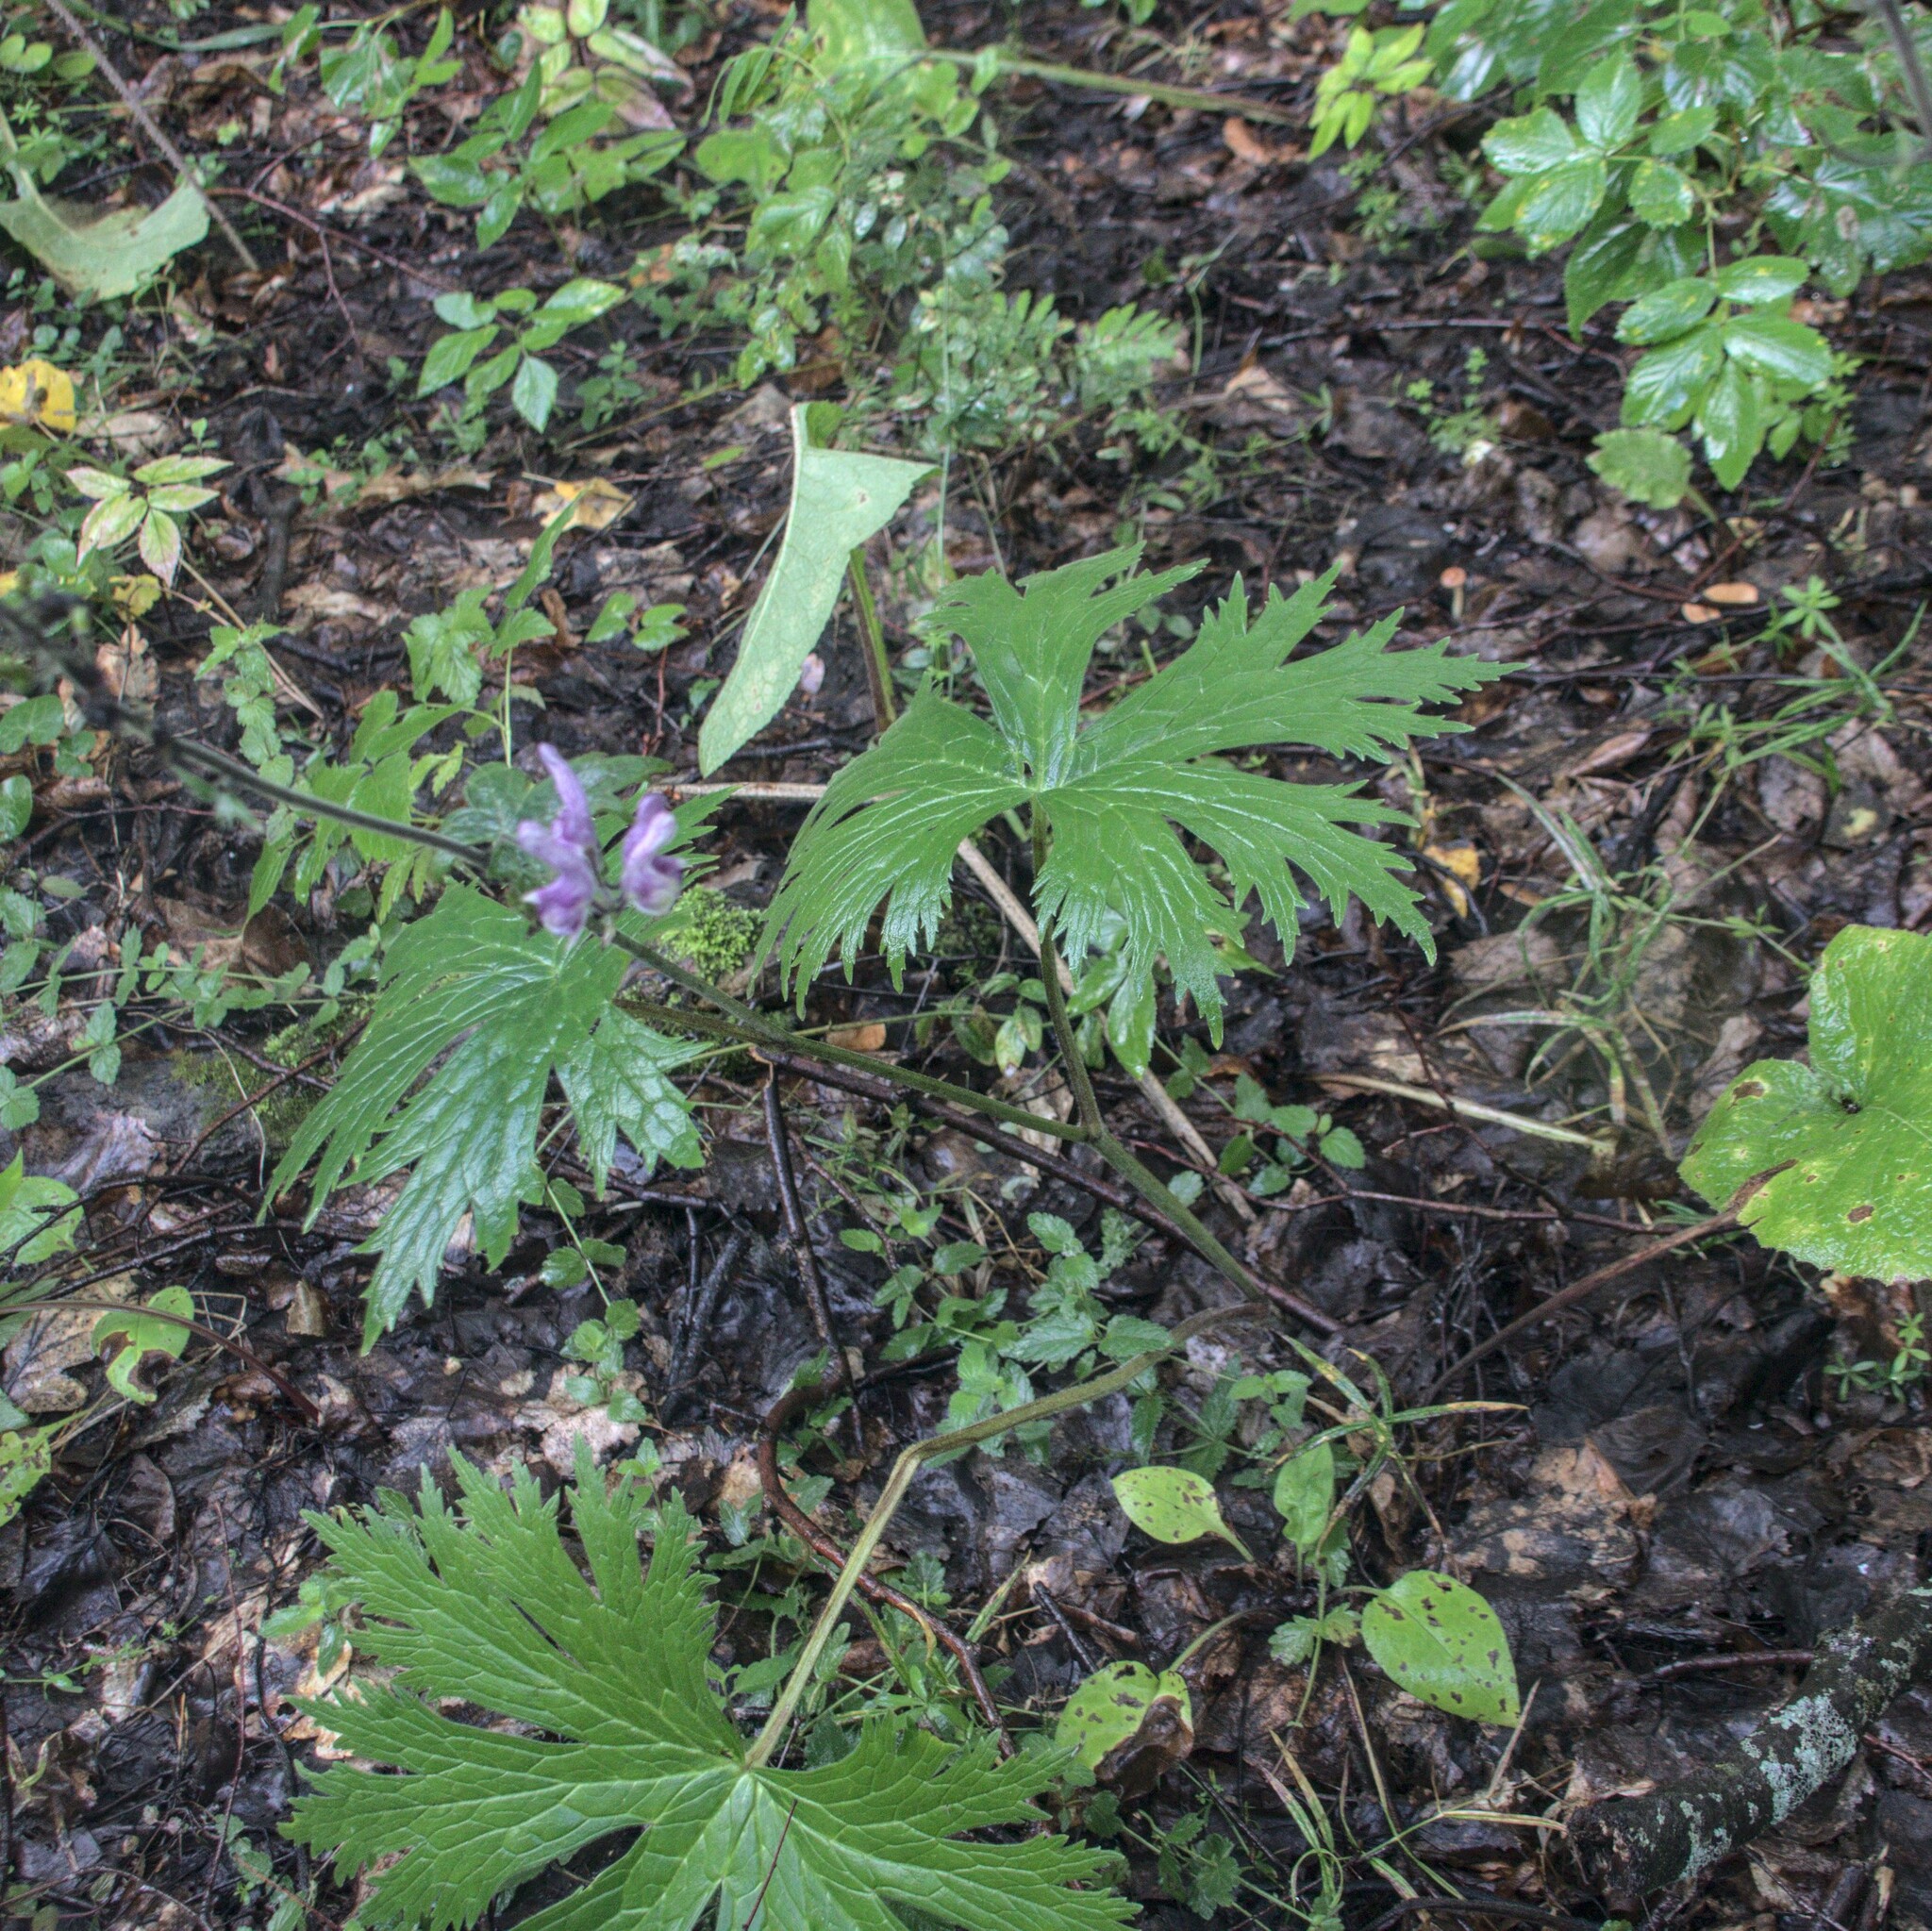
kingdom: Plantae
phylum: Tracheophyta
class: Magnoliopsida
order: Ranunculales
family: Ranunculaceae
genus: Aconitum
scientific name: Aconitum septentrionale
